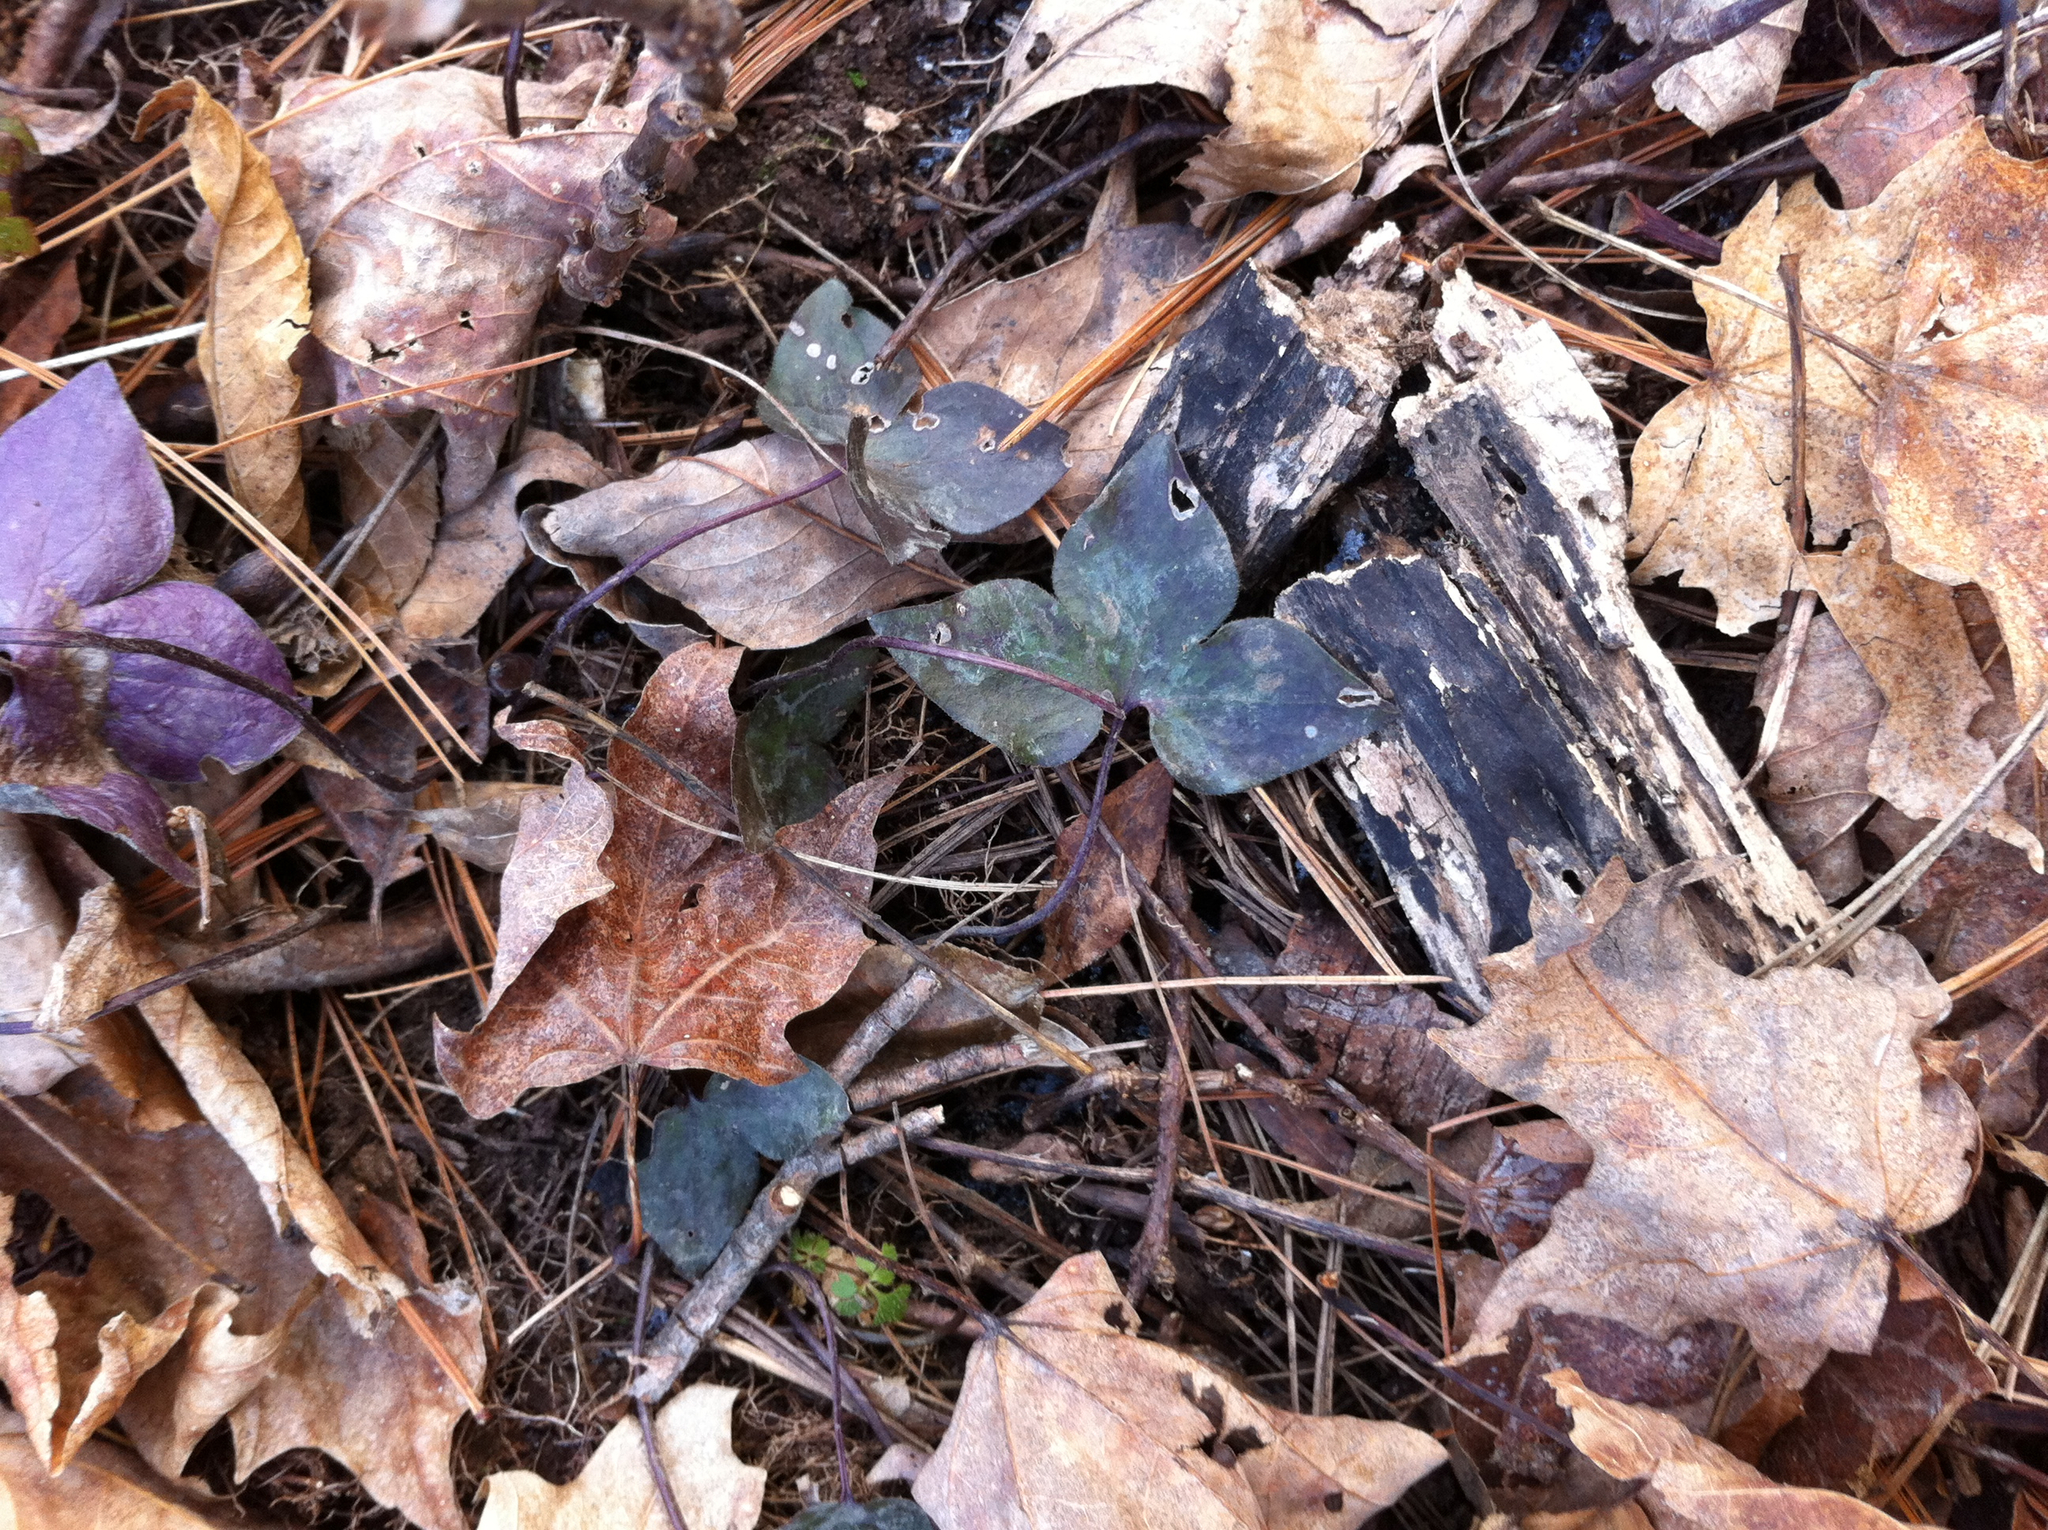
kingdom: Plantae
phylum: Tracheophyta
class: Magnoliopsida
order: Ranunculales
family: Ranunculaceae
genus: Hepatica
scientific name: Hepatica acutiloba
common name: Sharp-lobed hepatica
